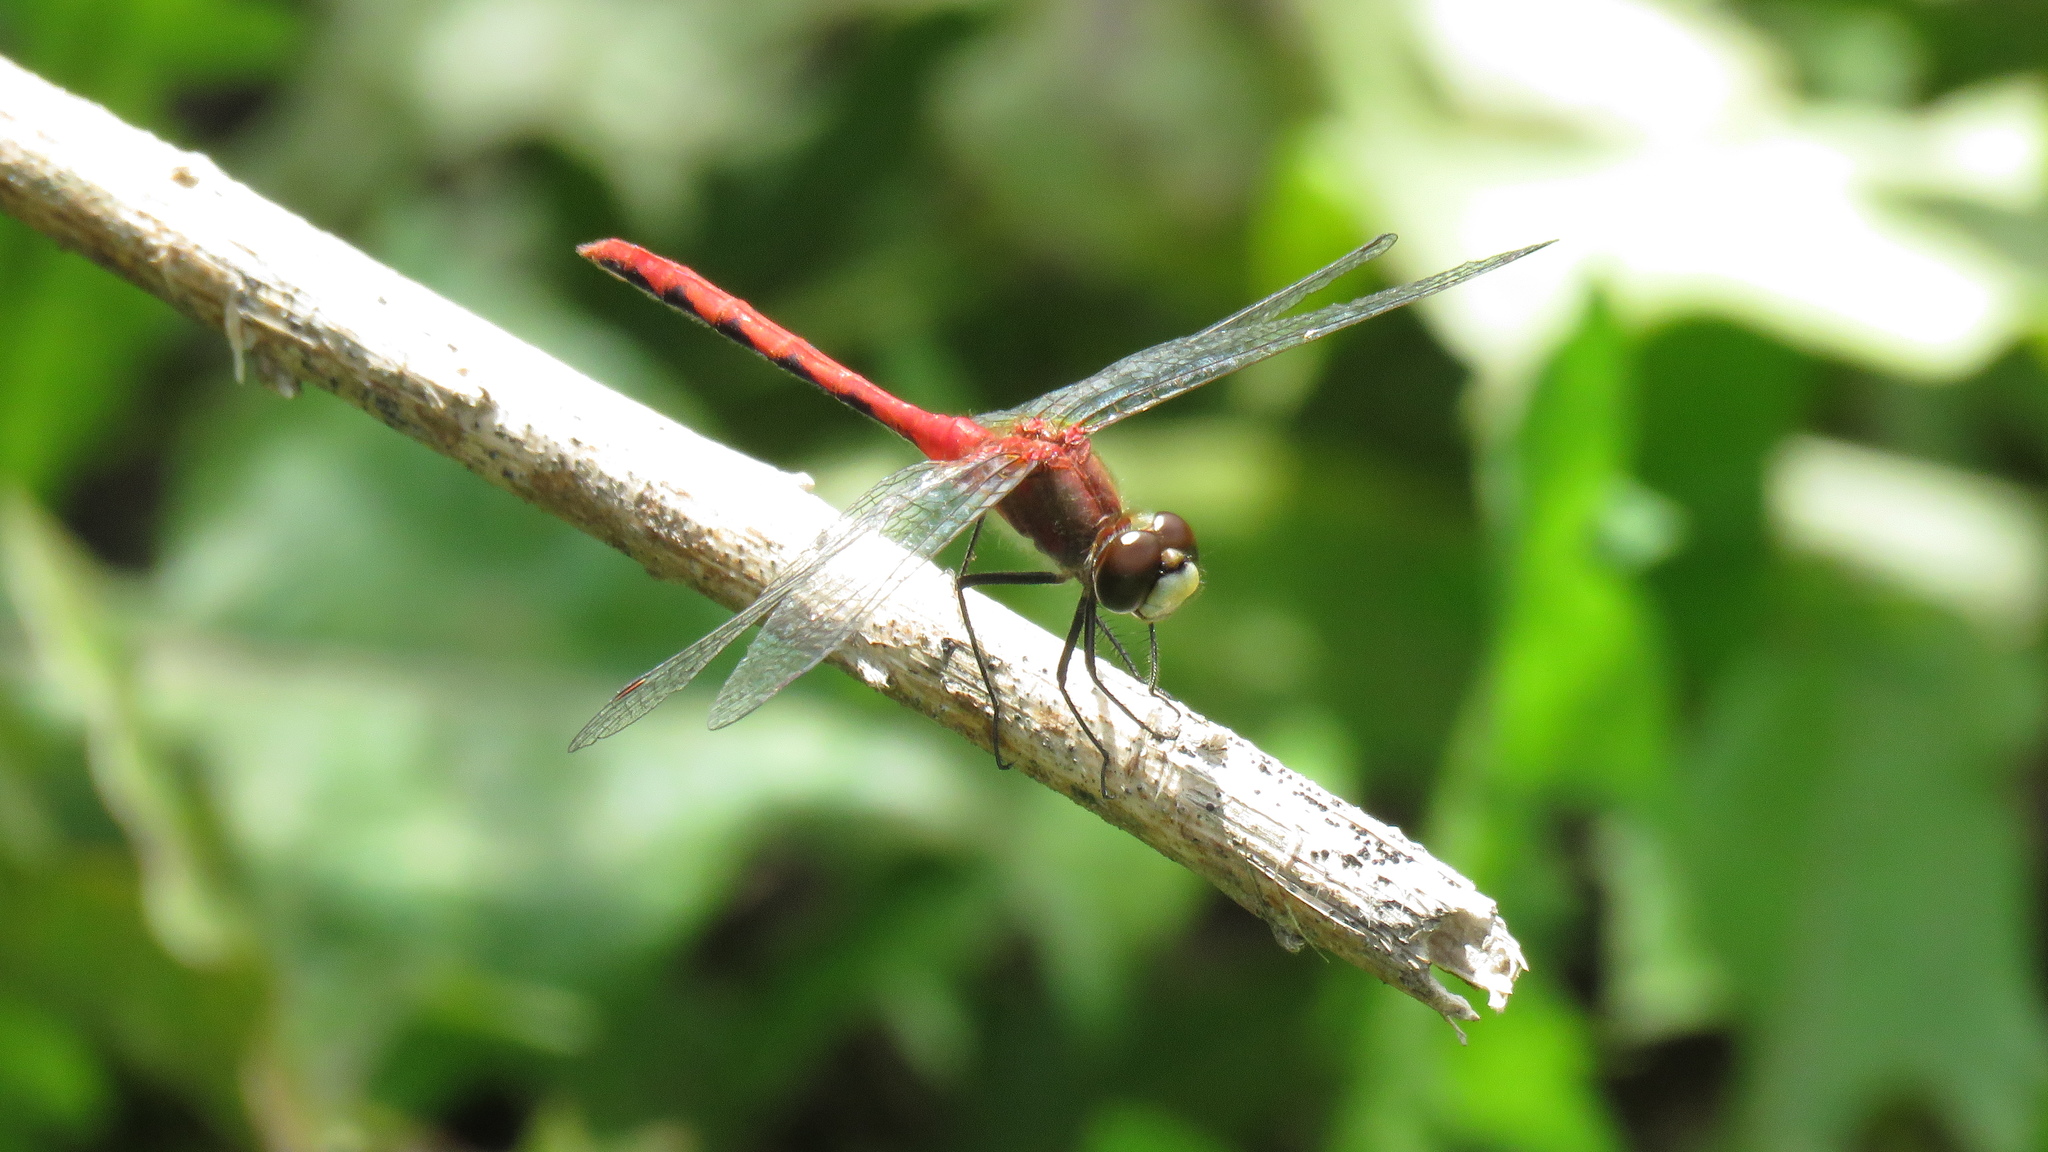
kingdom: Animalia
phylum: Arthropoda
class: Insecta
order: Odonata
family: Libellulidae
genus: Sympetrum
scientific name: Sympetrum obtrusum
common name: White-faced meadowhawk
